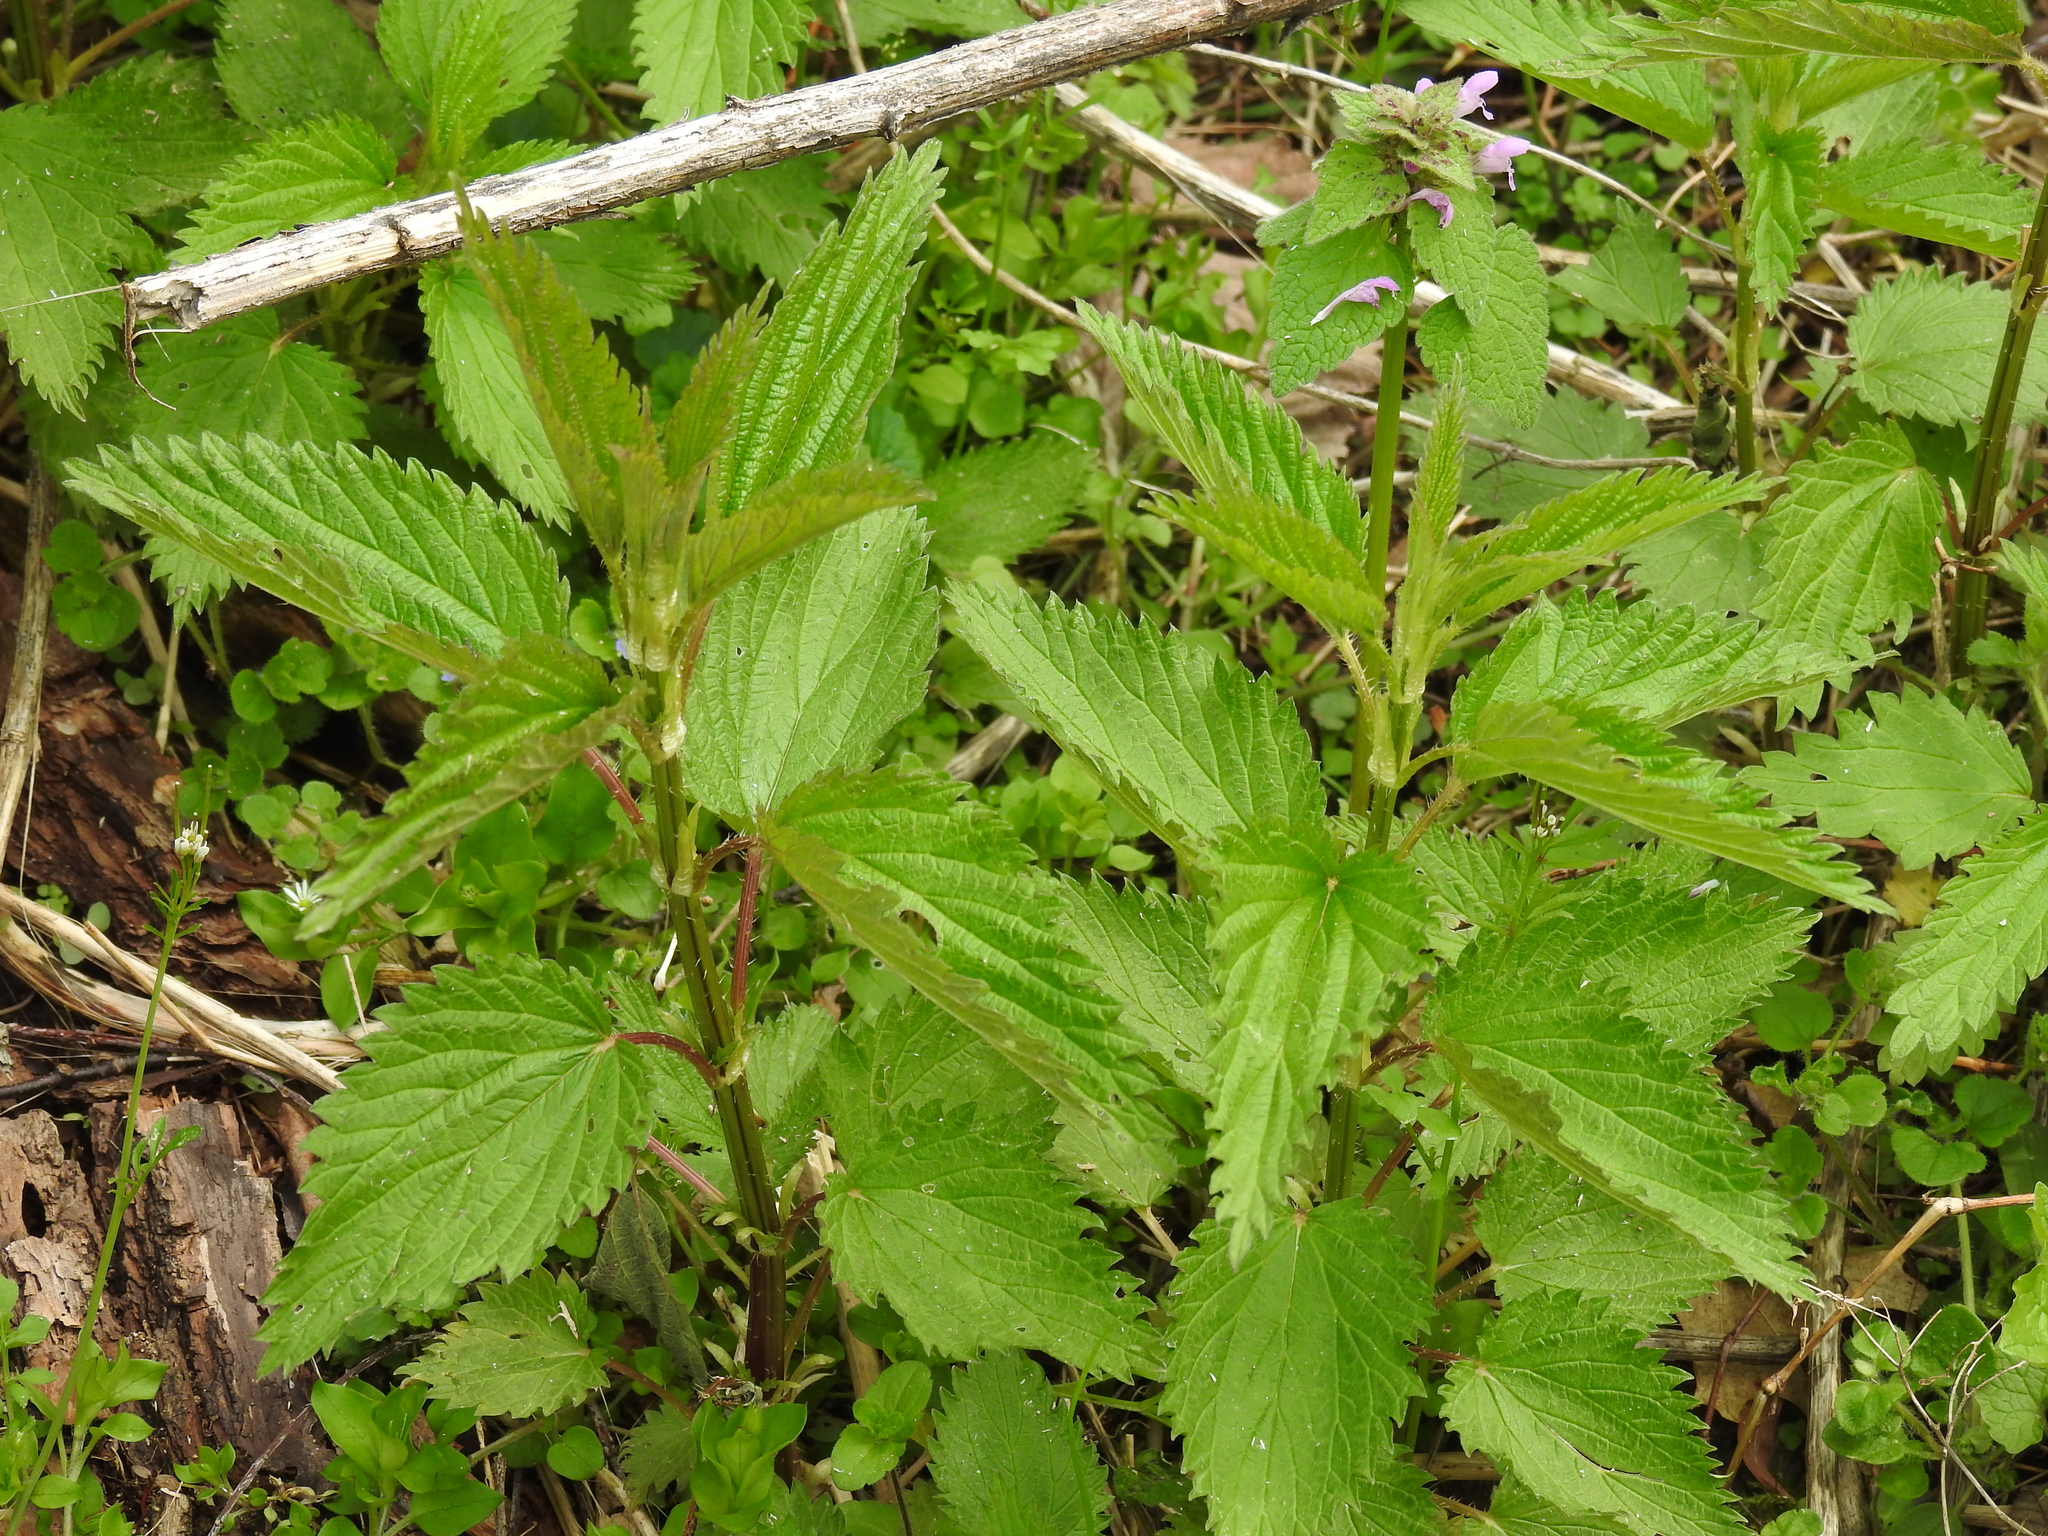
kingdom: Plantae
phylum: Tracheophyta
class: Magnoliopsida
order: Rosales
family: Urticaceae
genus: Urtica
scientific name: Urtica dioica
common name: Common nettle
